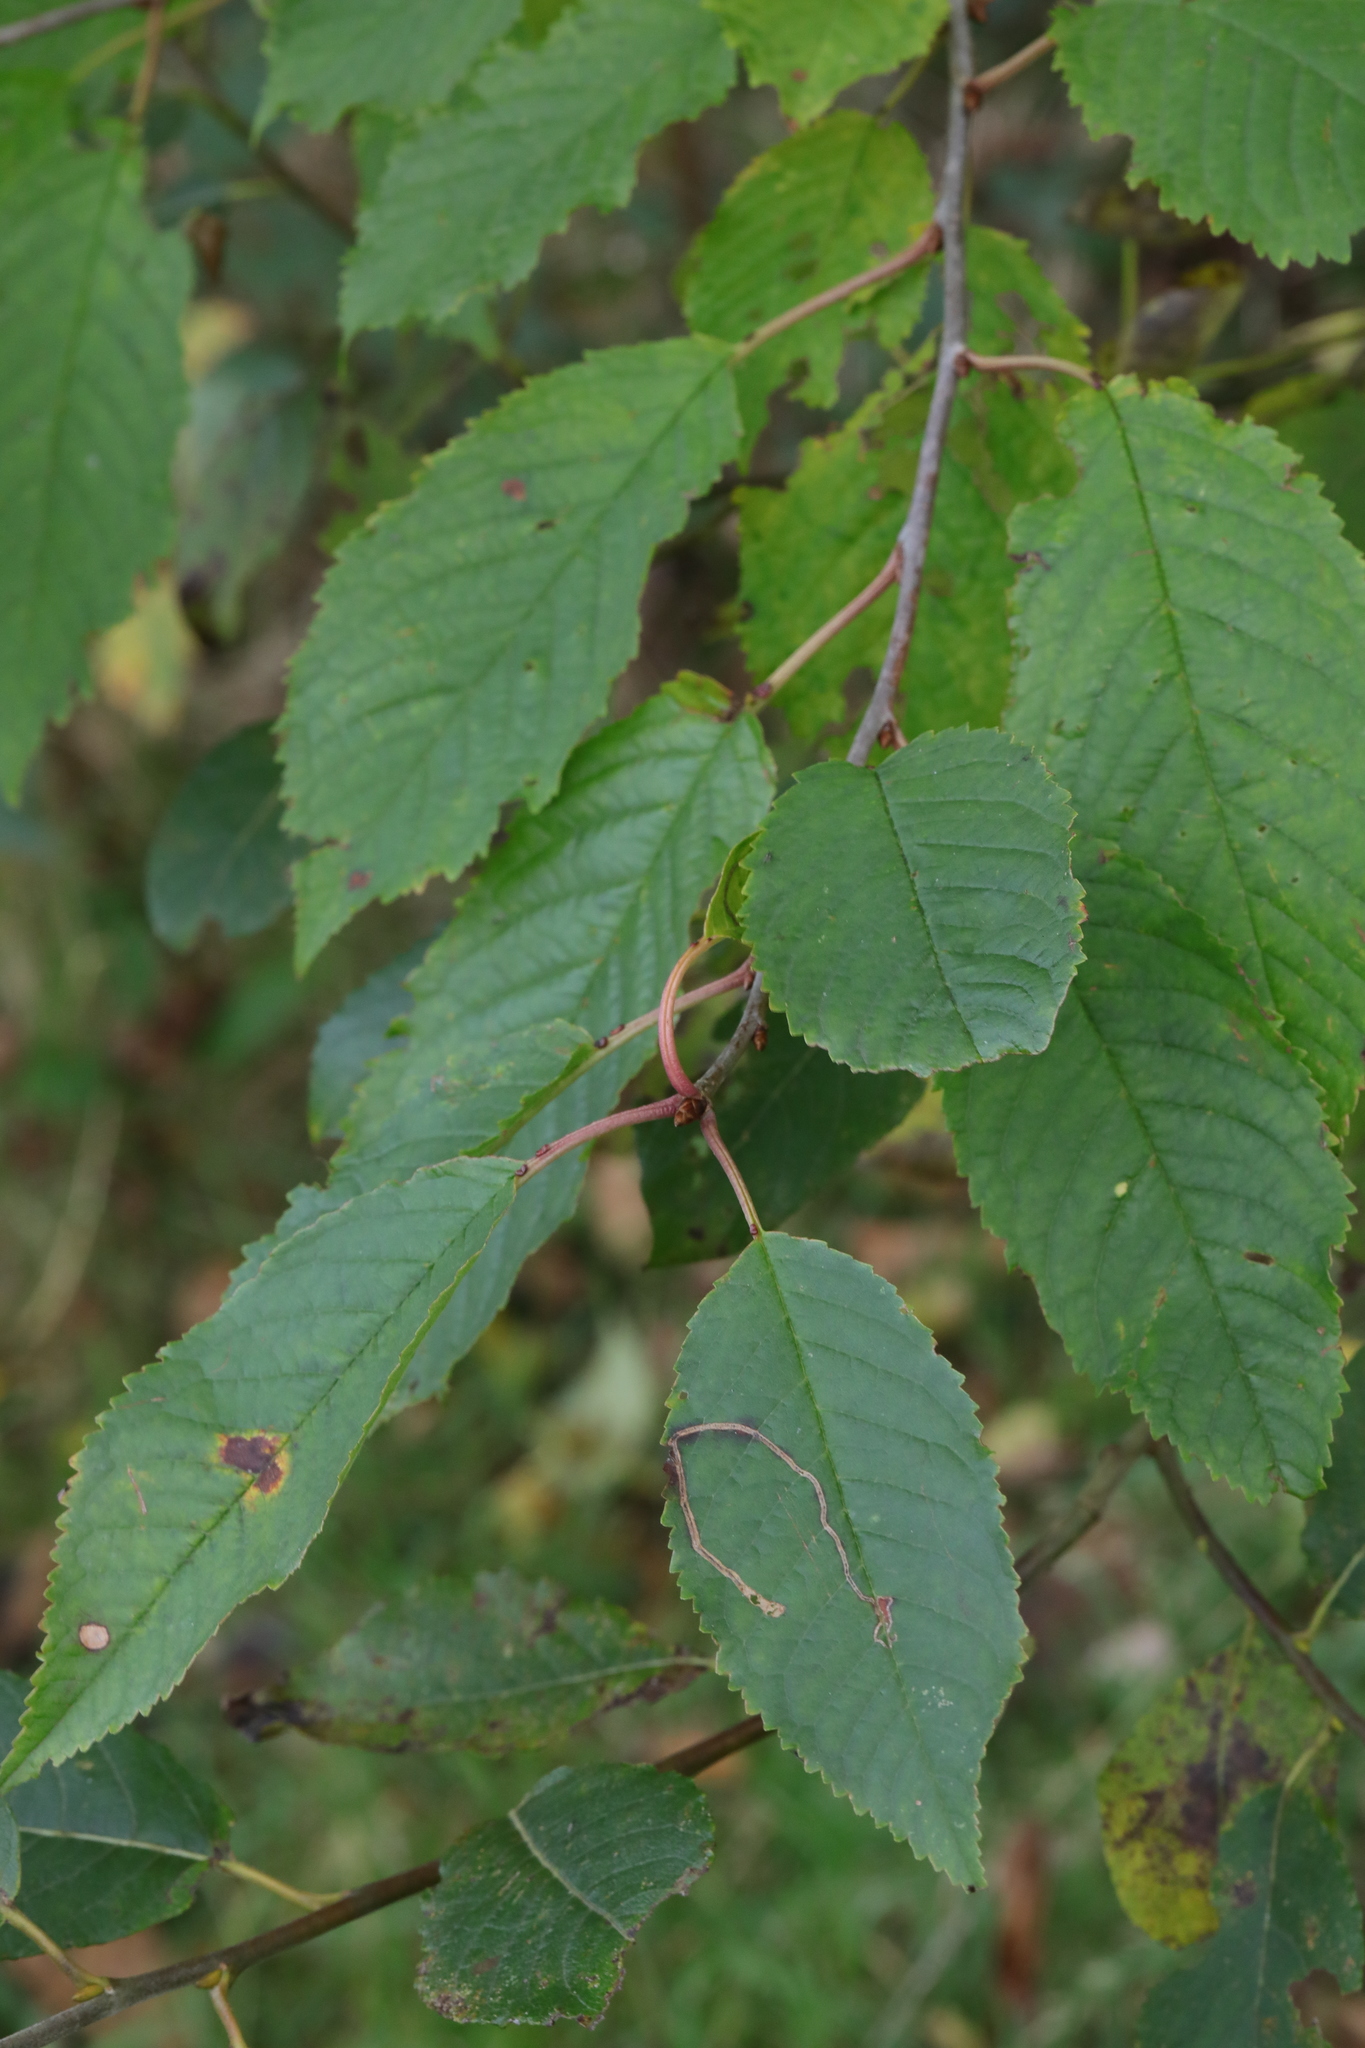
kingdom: Plantae
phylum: Tracheophyta
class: Magnoliopsida
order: Rosales
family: Rosaceae
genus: Prunus
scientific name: Prunus avium
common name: Sweet cherry
